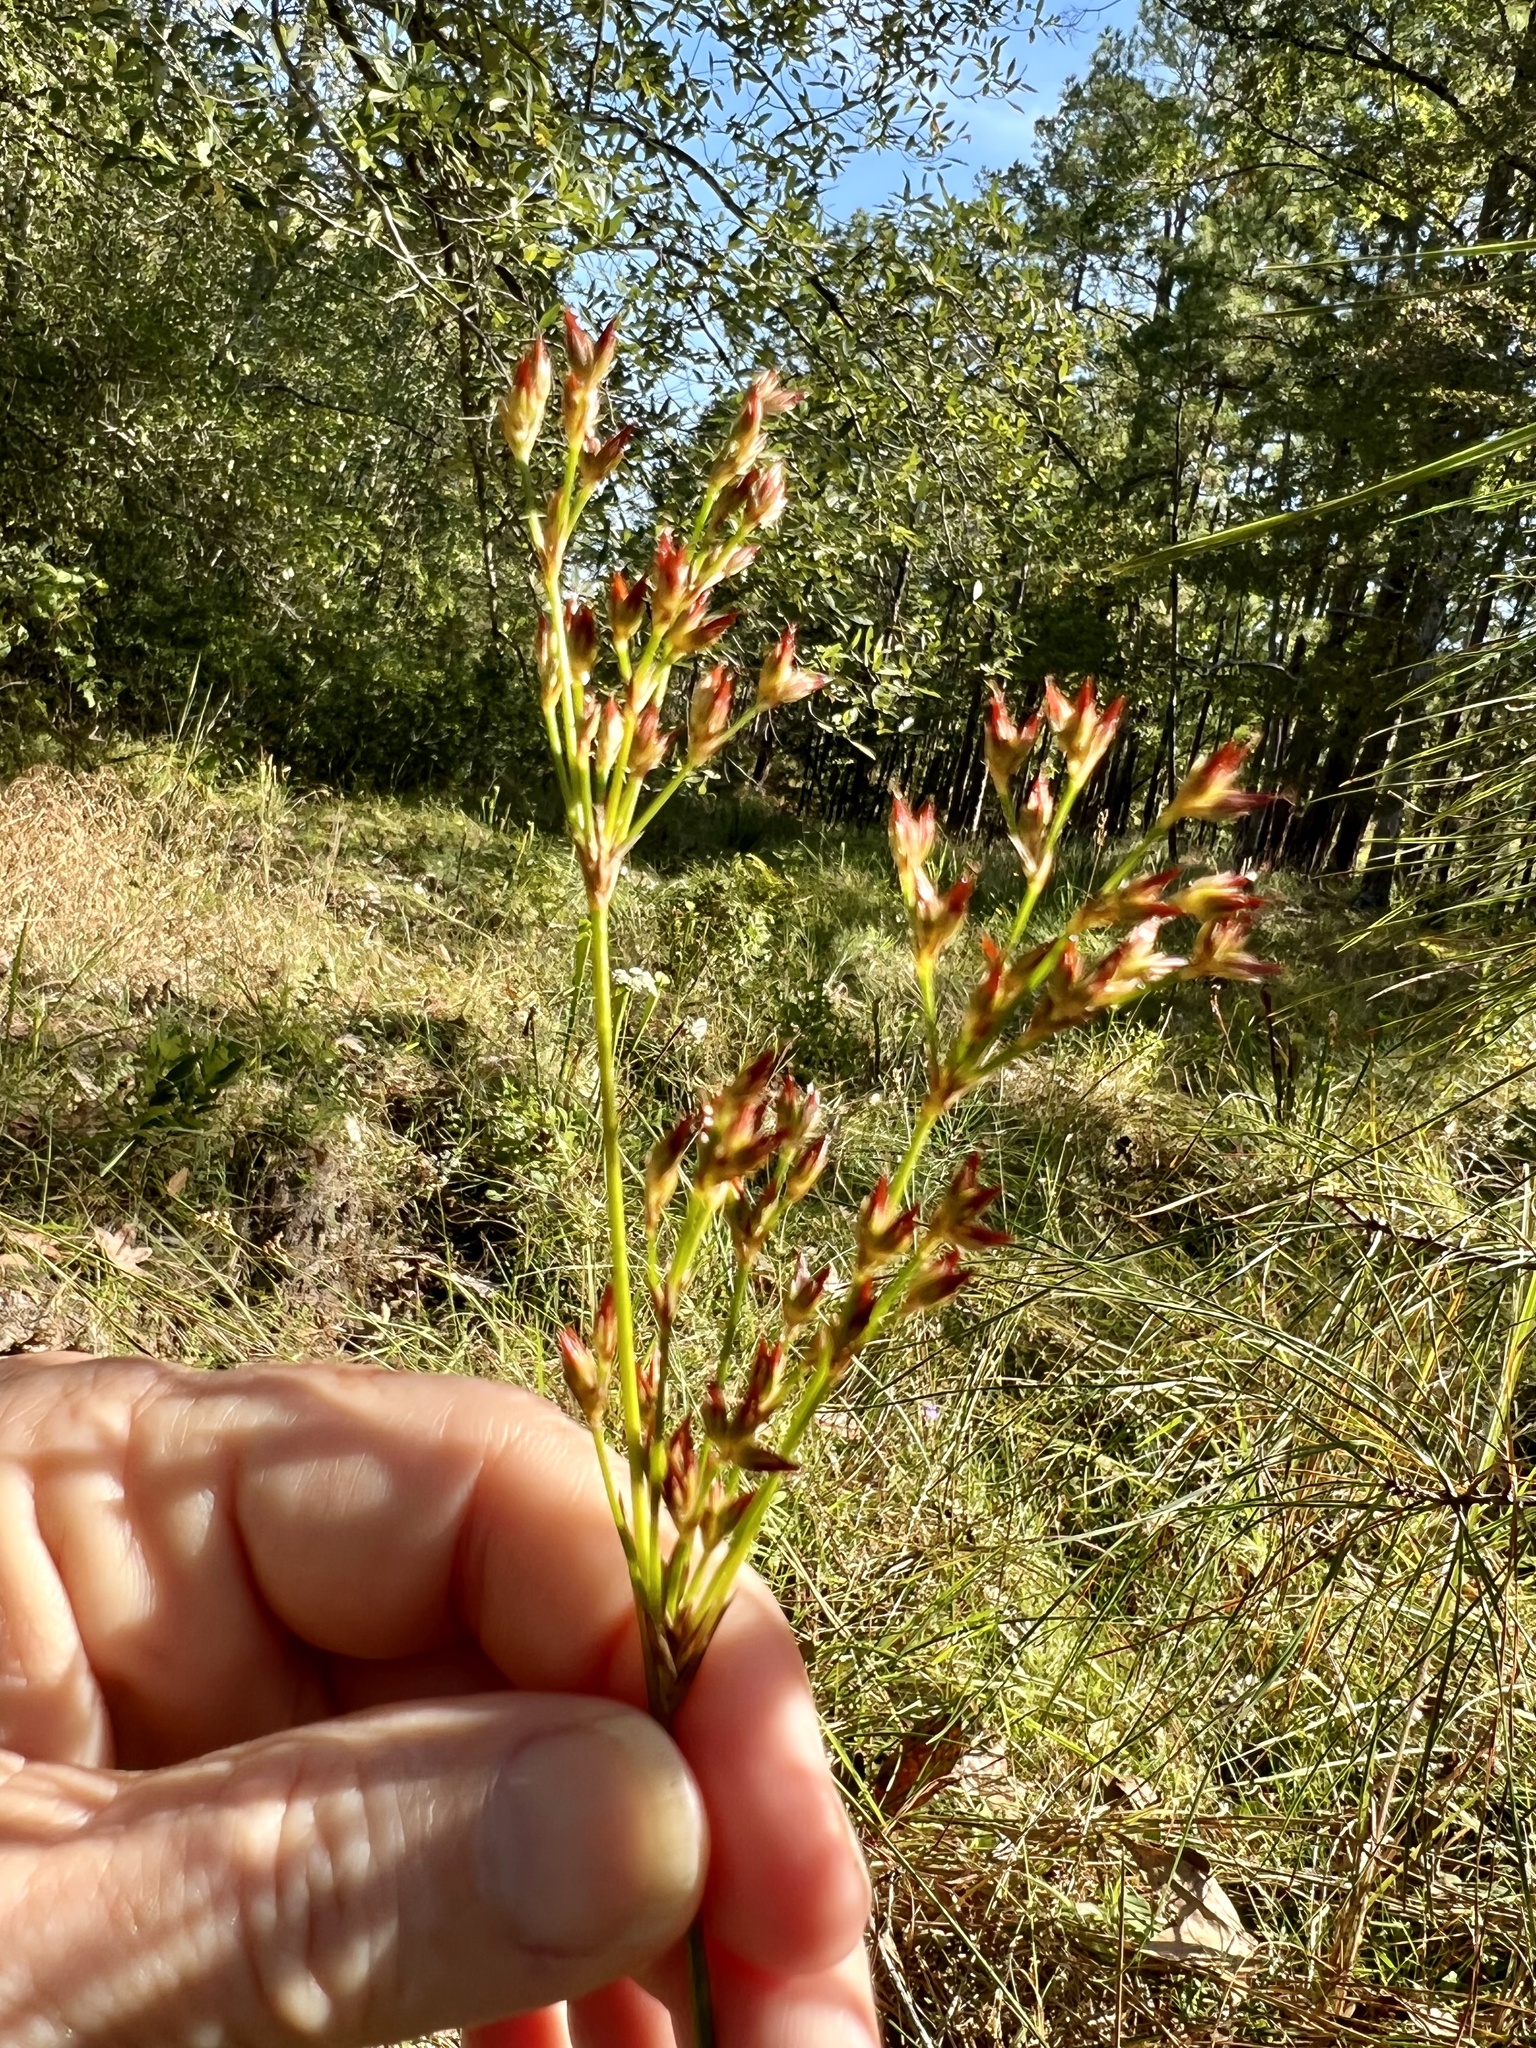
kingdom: Plantae
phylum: Tracheophyta
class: Liliopsida
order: Poales
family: Juncaceae
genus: Juncus
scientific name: Juncus trigonocarpus
